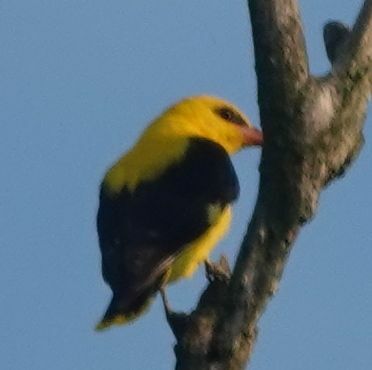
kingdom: Animalia
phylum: Chordata
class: Aves
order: Passeriformes
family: Oriolidae
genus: Oriolus
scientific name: Oriolus oriolus
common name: Eurasian golden oriole
